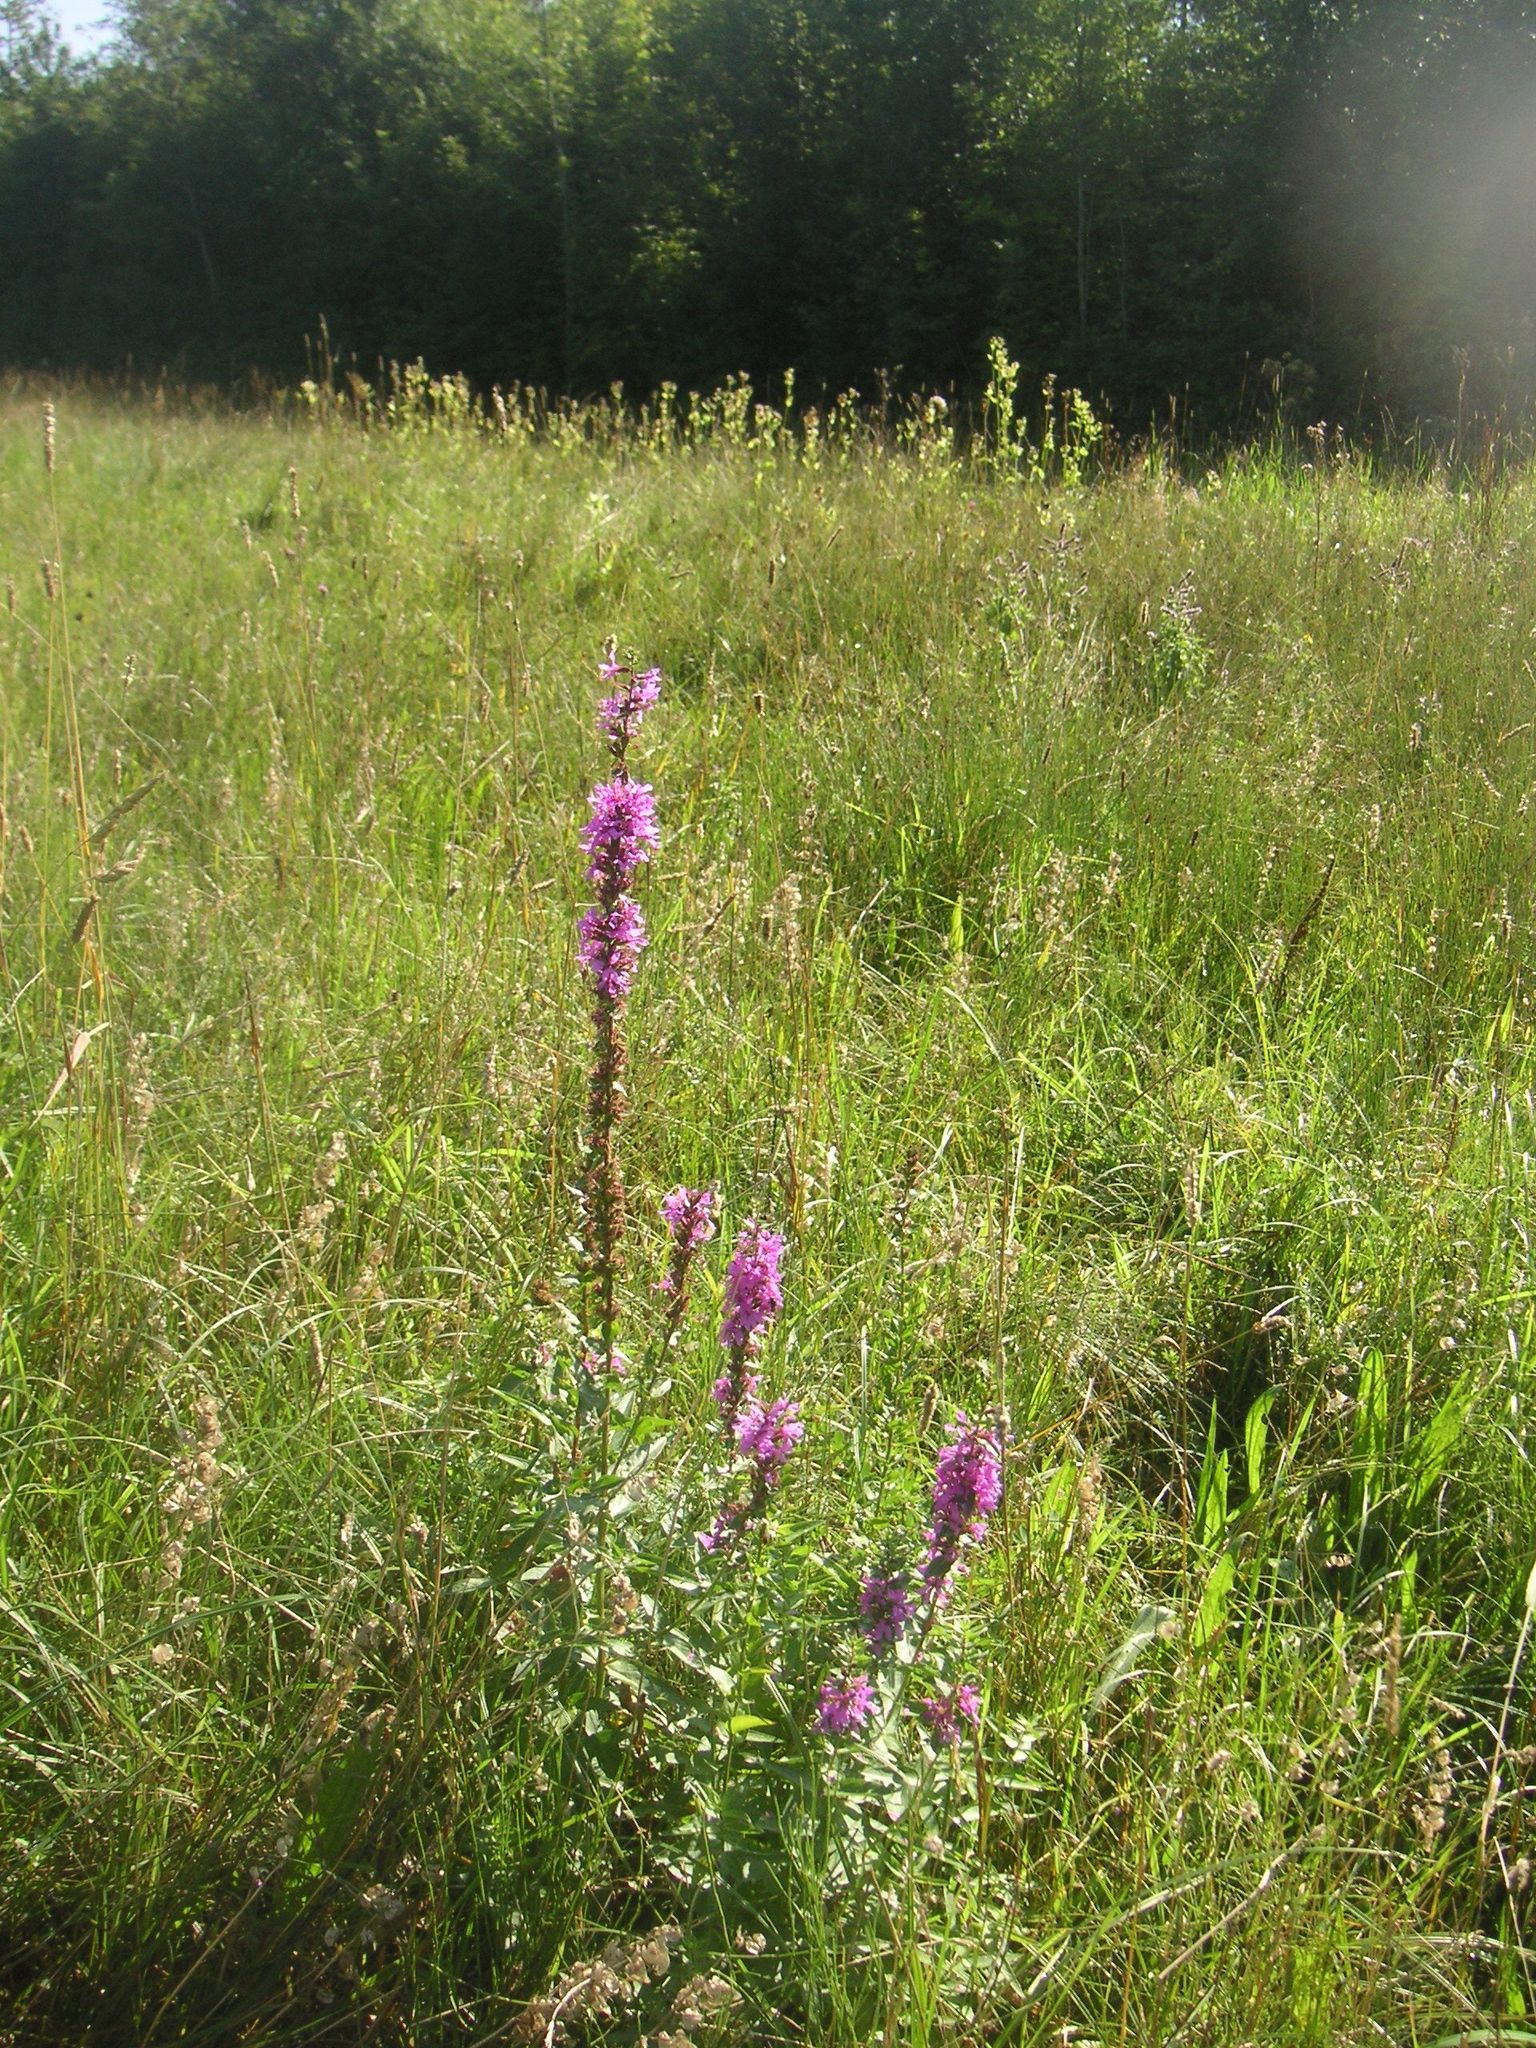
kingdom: Plantae
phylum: Tracheophyta
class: Magnoliopsida
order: Myrtales
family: Lythraceae
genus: Lythrum
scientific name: Lythrum salicaria
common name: Purple loosestrife
